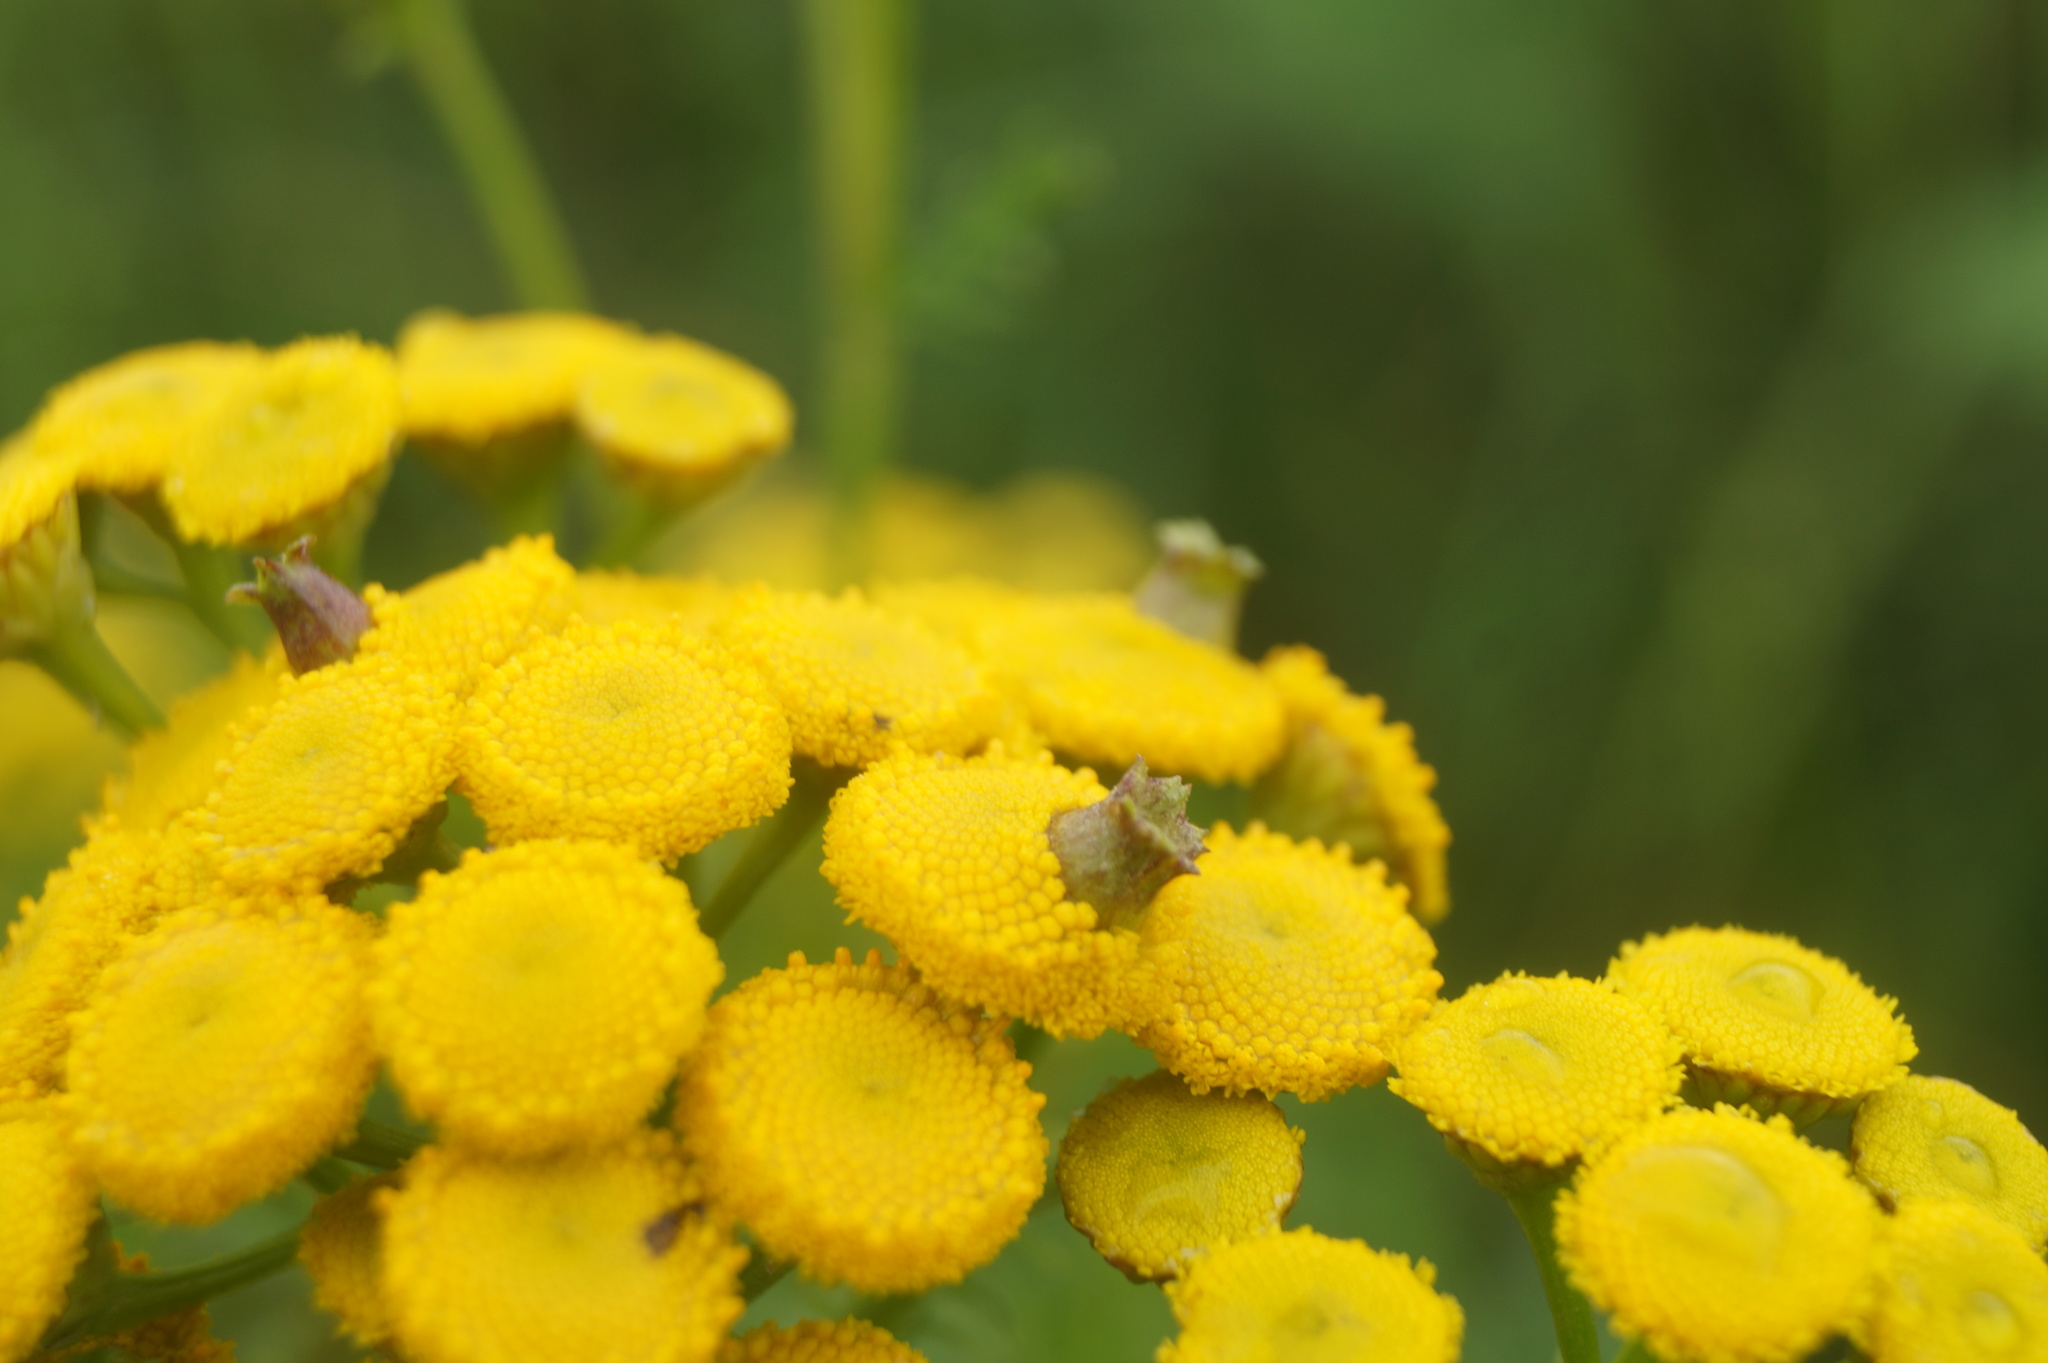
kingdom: Animalia
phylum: Arthropoda
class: Insecta
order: Diptera
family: Cecidomyiidae
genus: Rhopalomyia
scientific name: Rhopalomyia tanaceticolus
